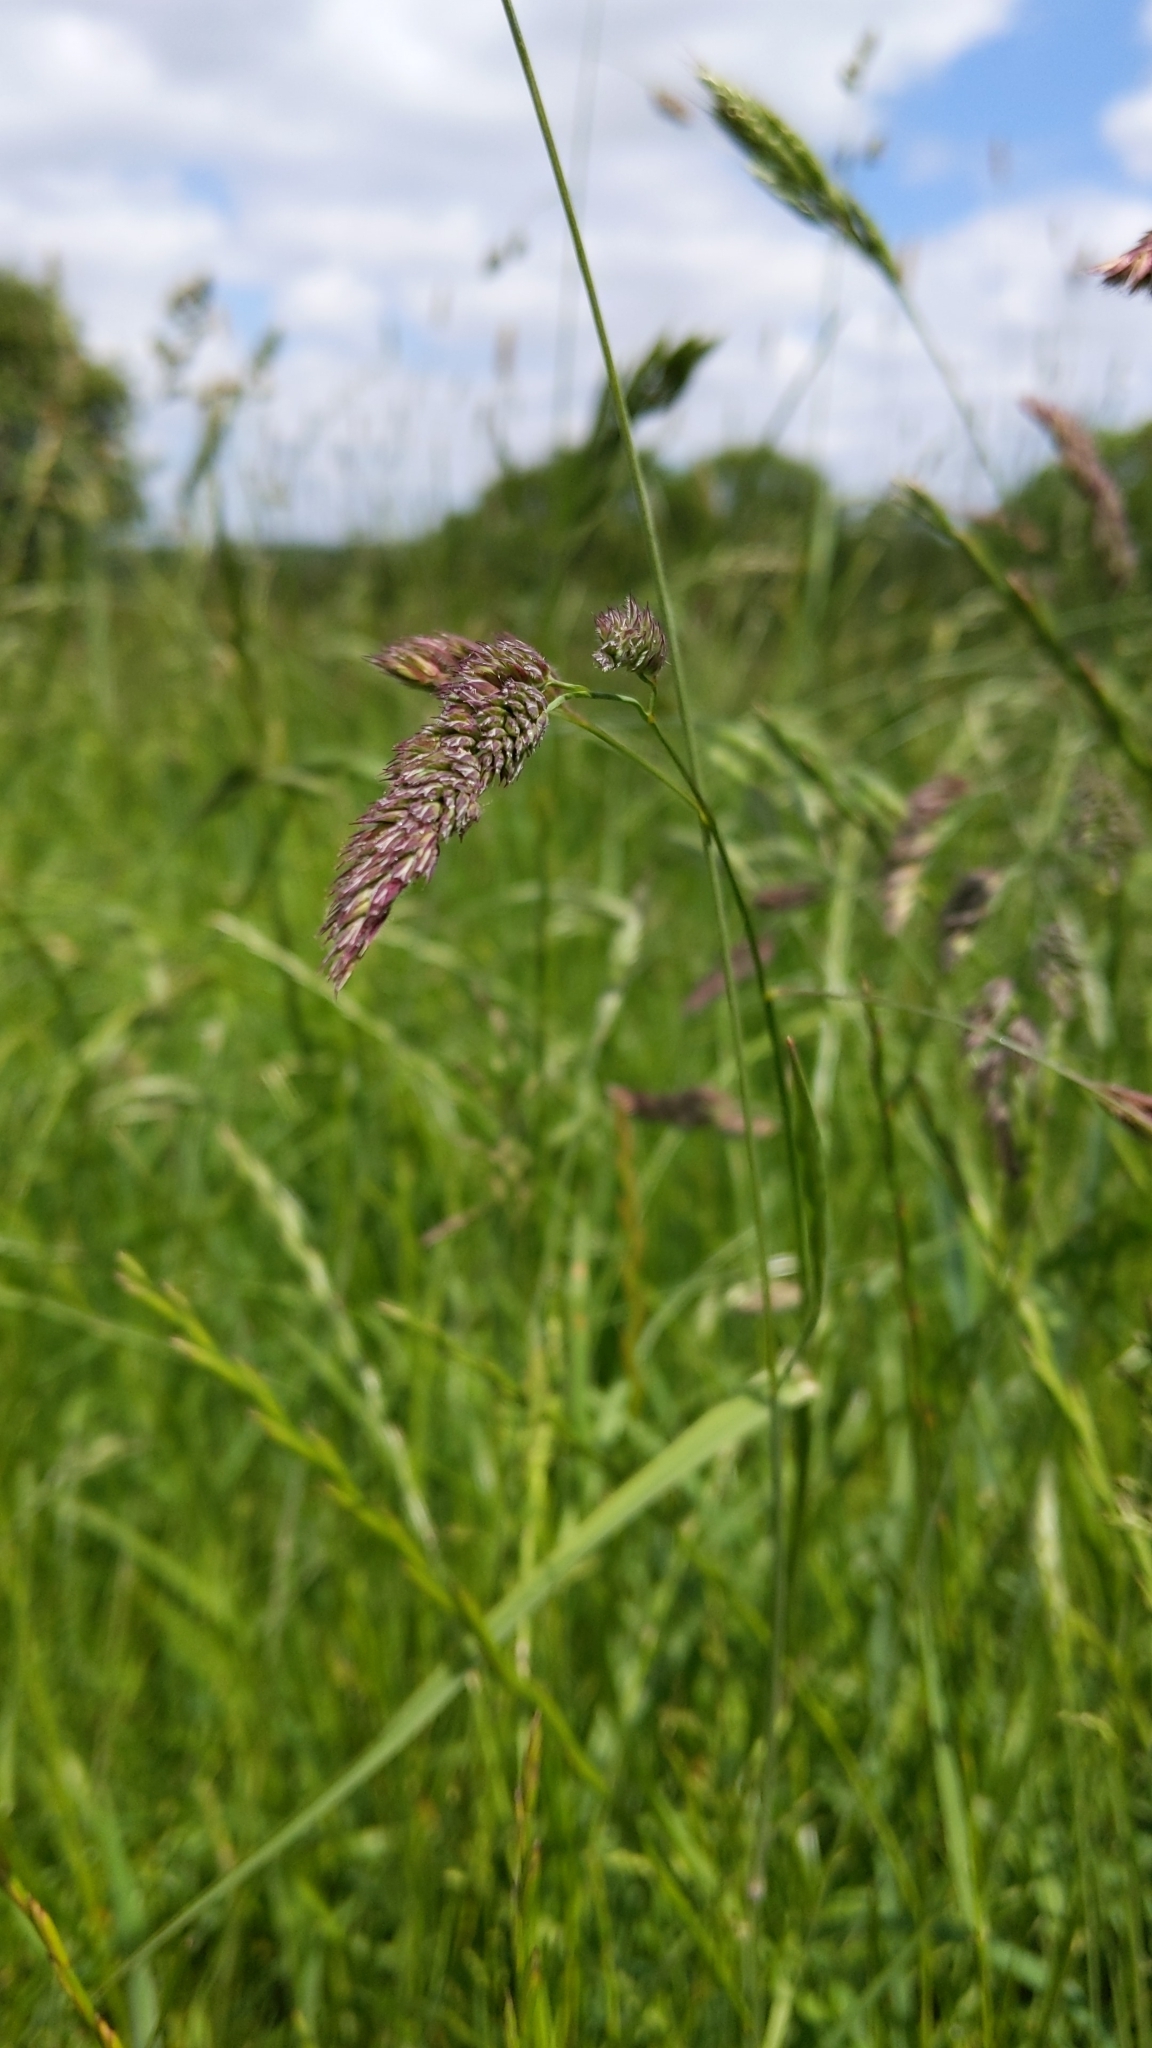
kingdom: Plantae
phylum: Tracheophyta
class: Liliopsida
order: Poales
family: Poaceae
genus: Dactylis
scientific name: Dactylis glomerata
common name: Orchardgrass
